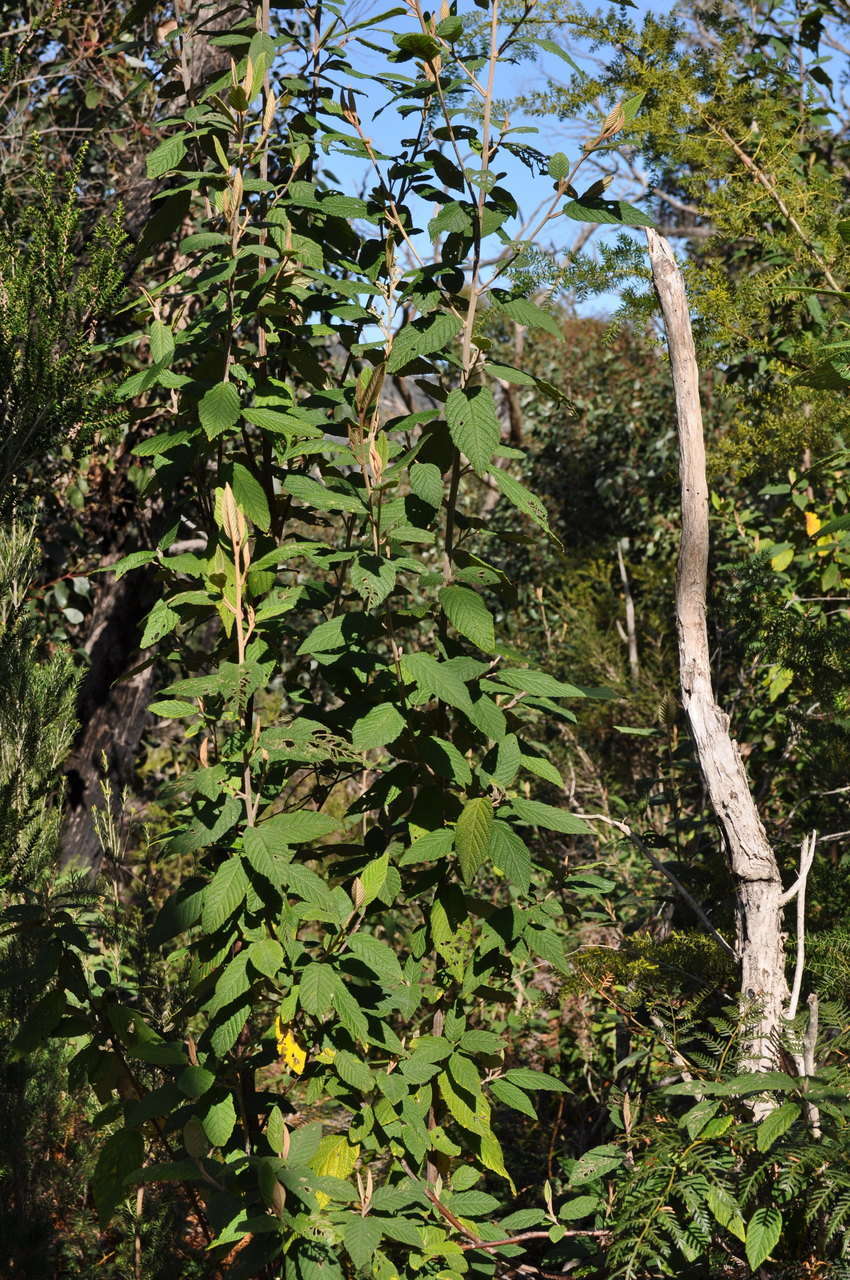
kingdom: Plantae
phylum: Tracheophyta
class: Magnoliopsida
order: Rosales
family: Rhamnaceae
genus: Pomaderris
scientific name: Pomaderris aspera
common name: Hazel pomaderris
